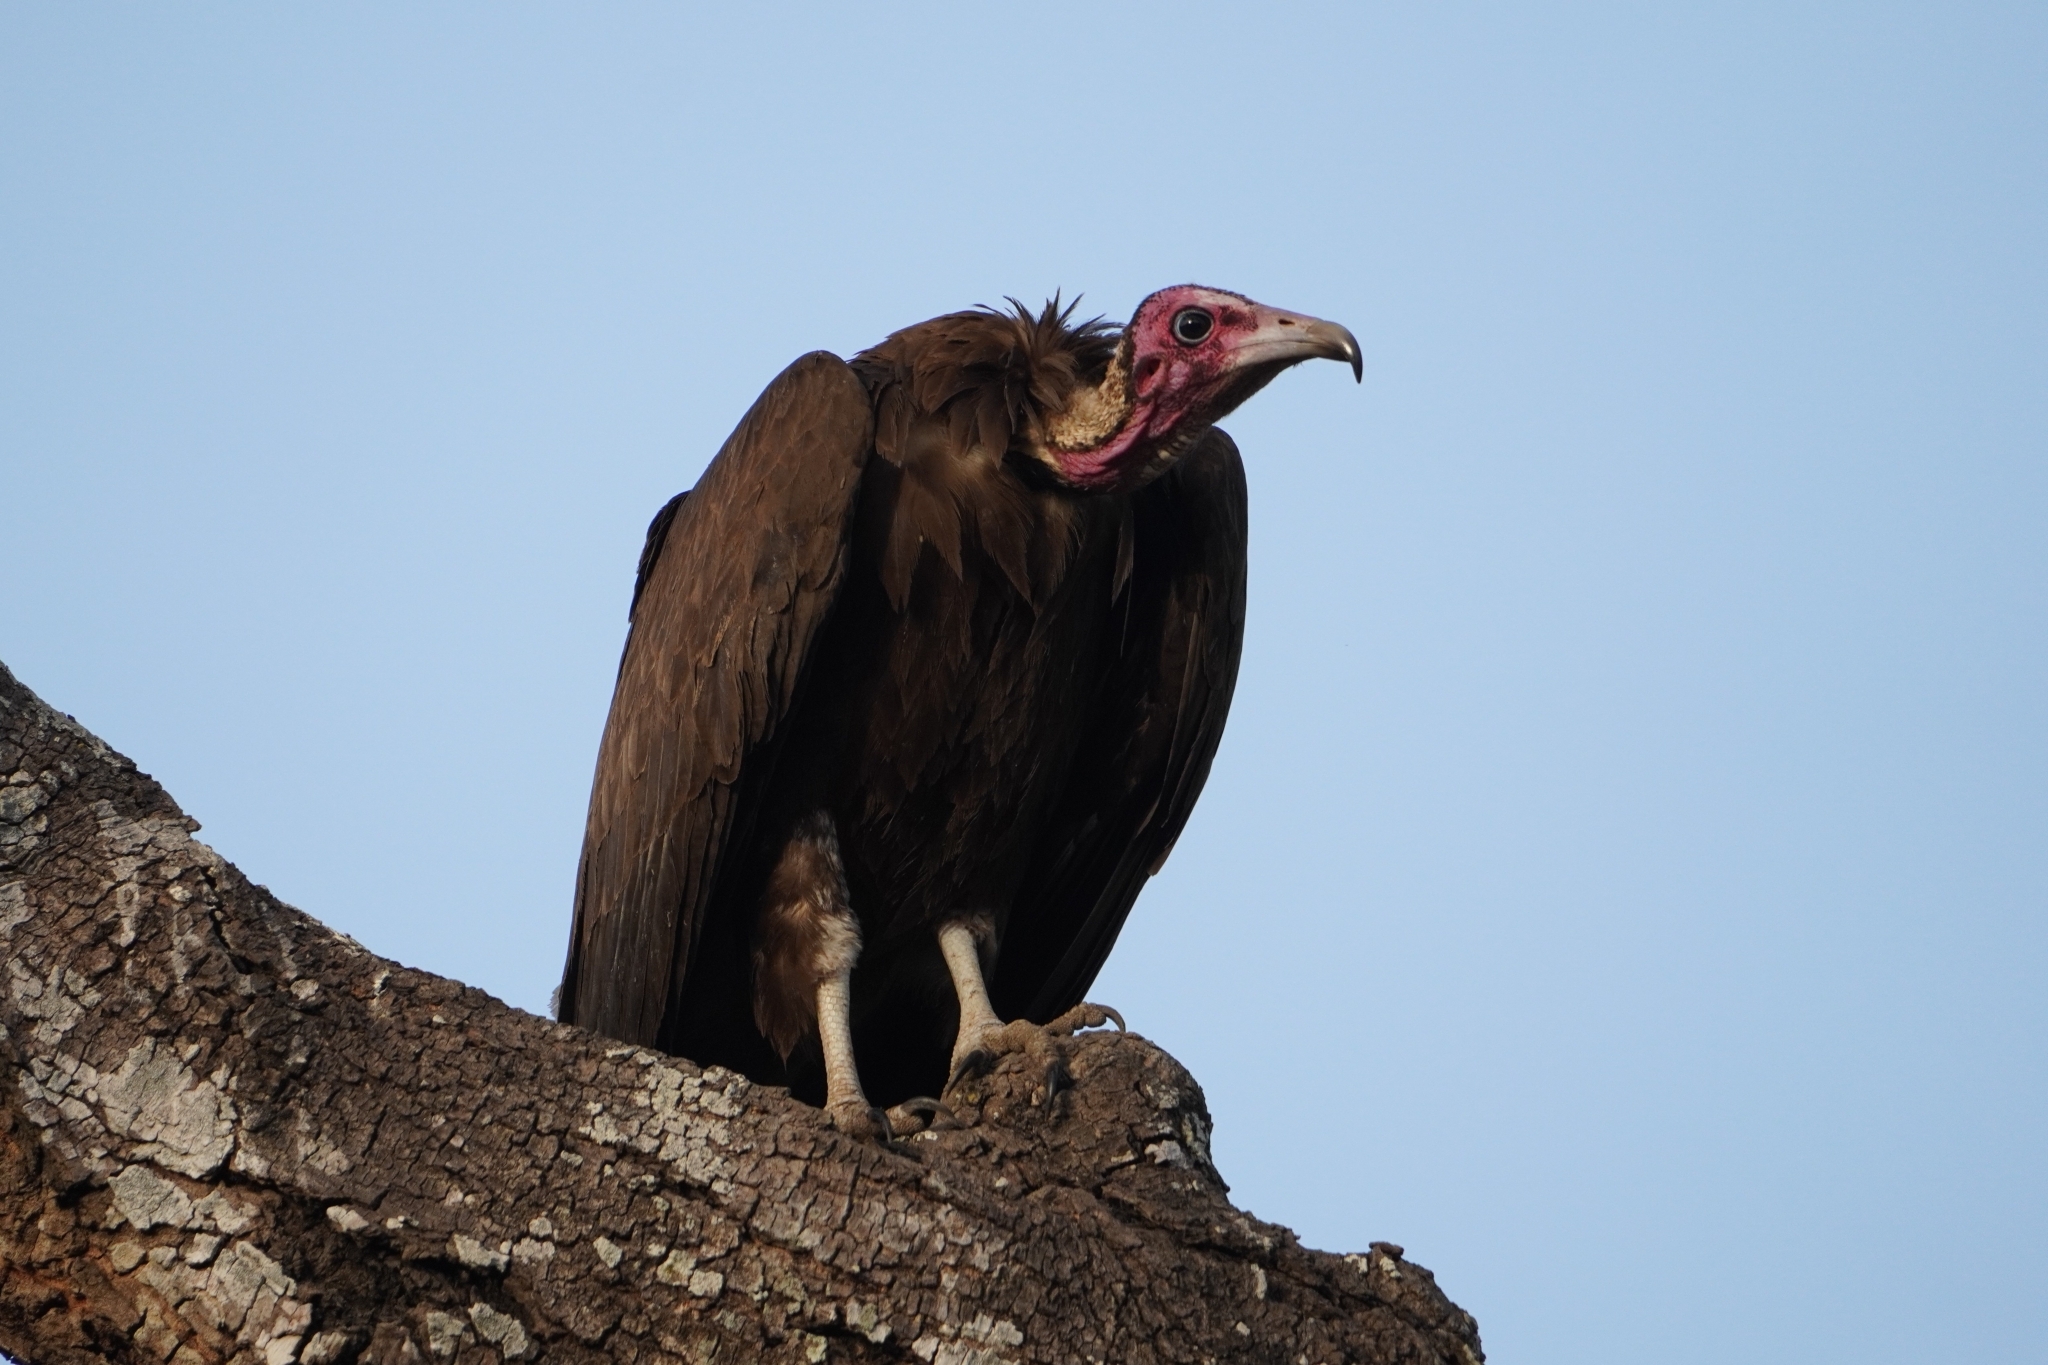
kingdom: Animalia
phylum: Chordata
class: Aves
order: Accipitriformes
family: Accipitridae
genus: Necrosyrtes
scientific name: Necrosyrtes monachus
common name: Hooded vulture
